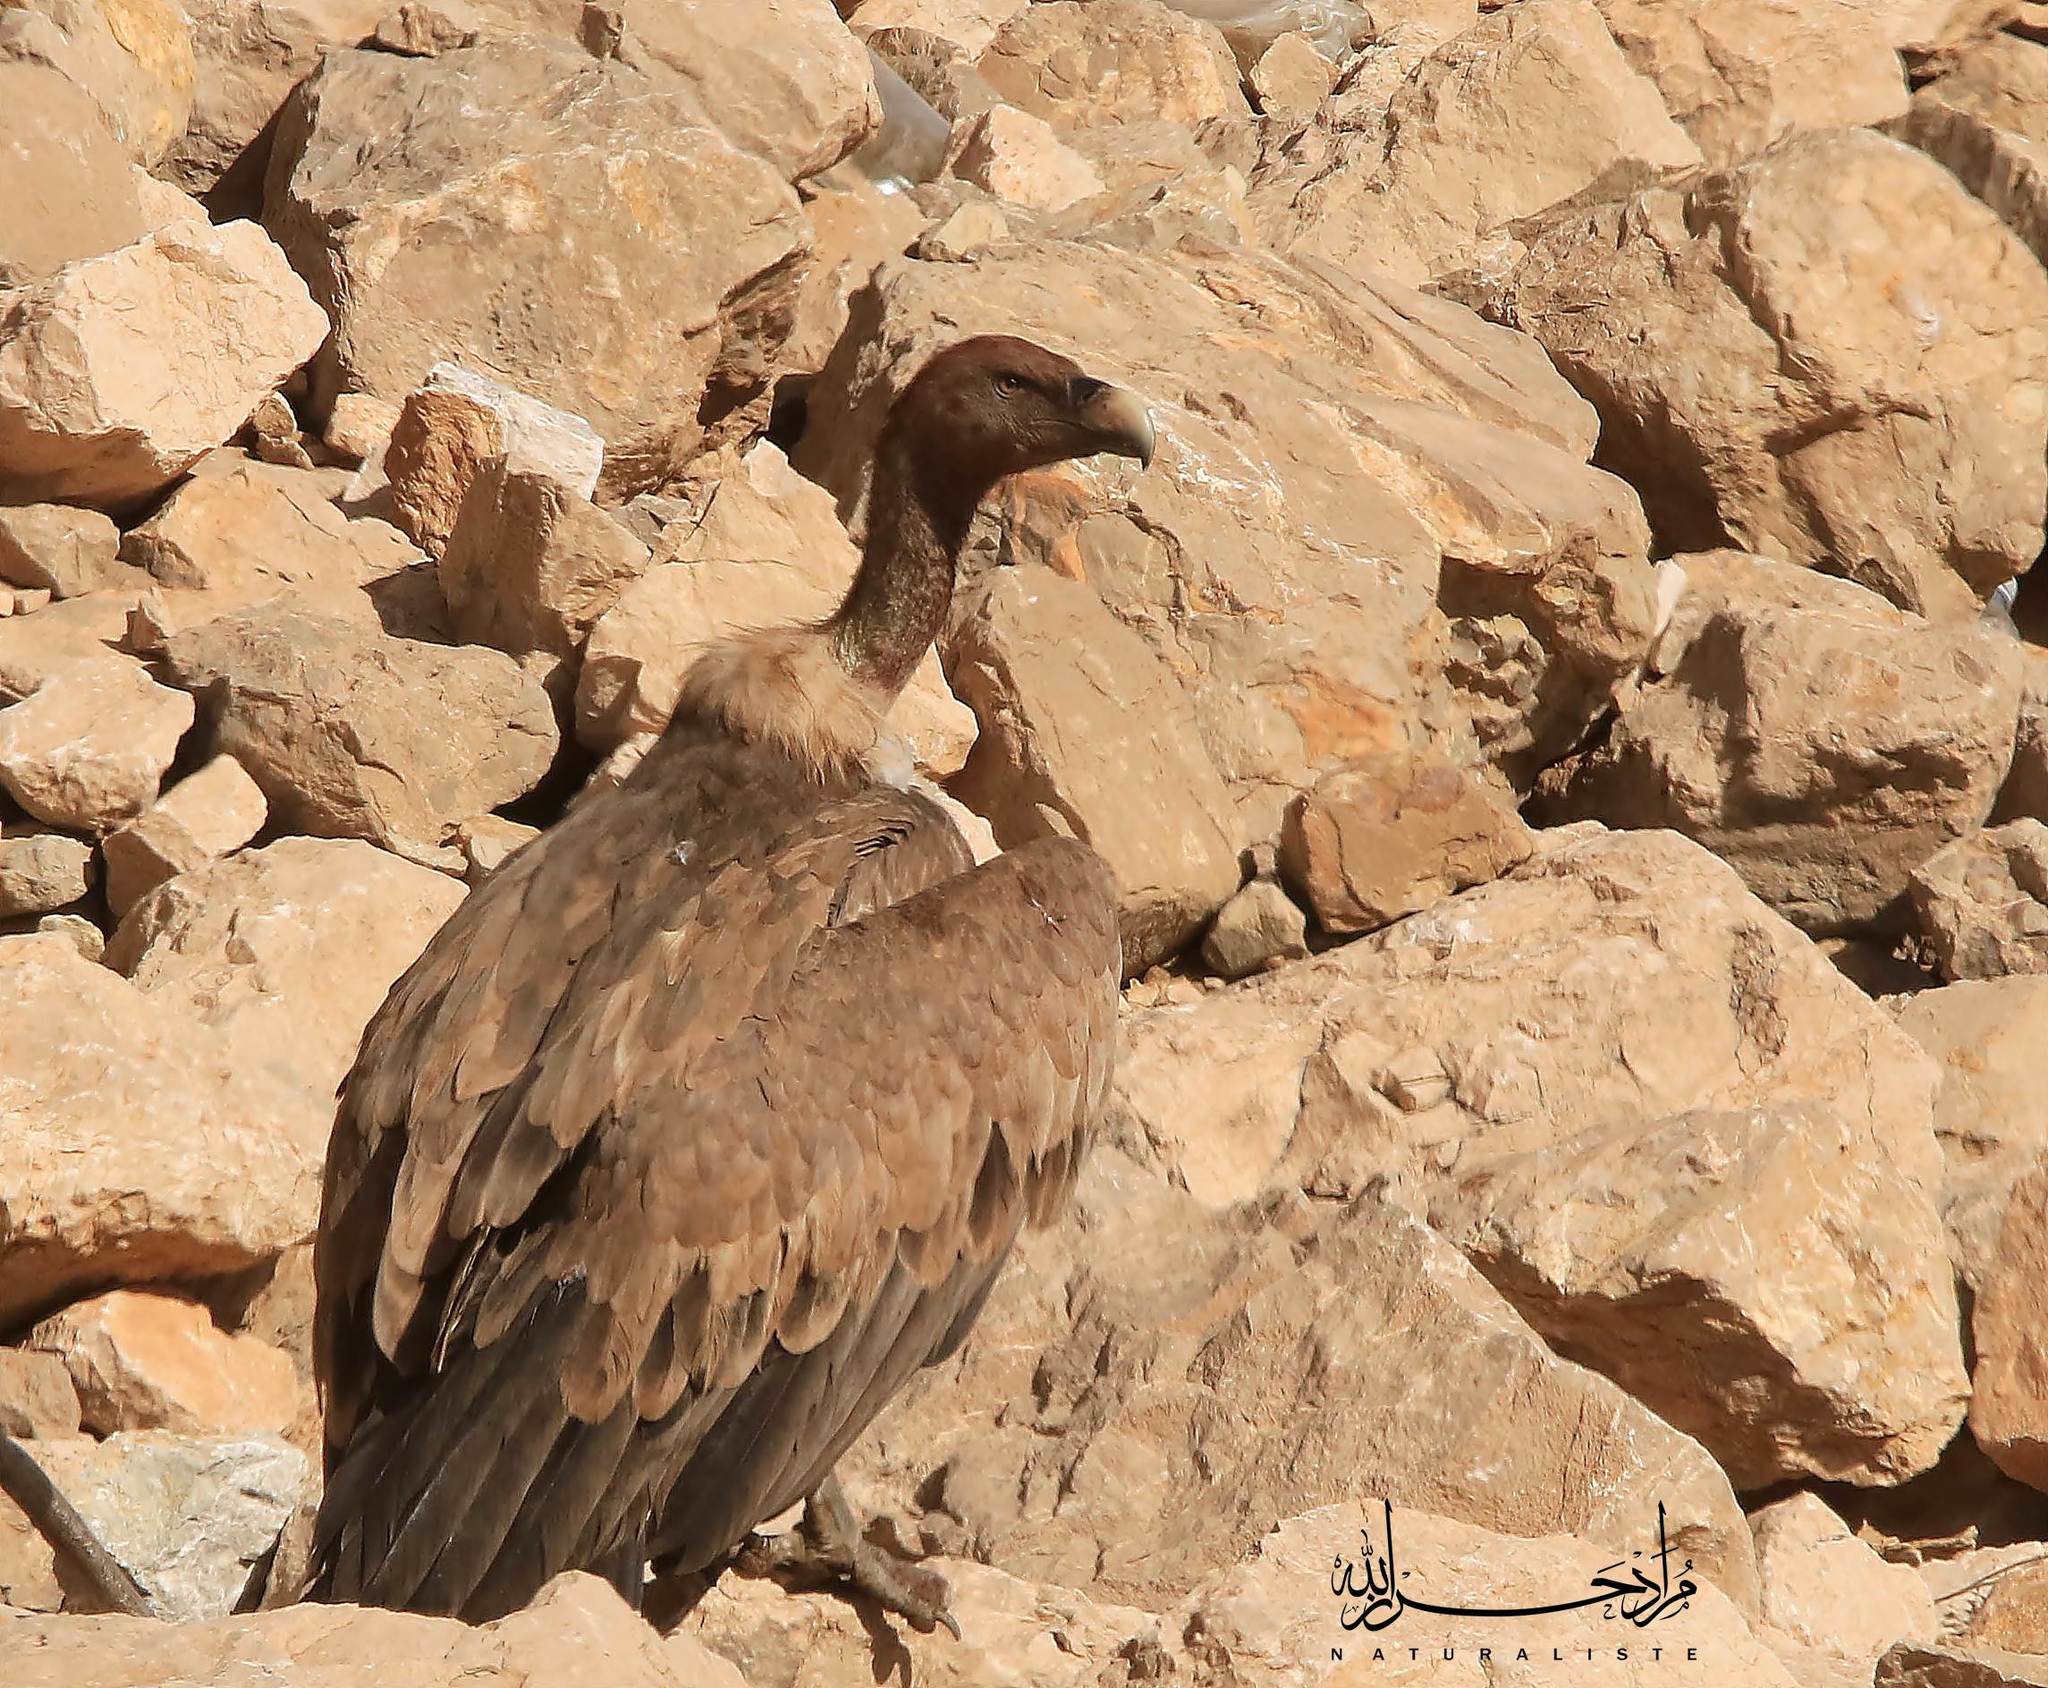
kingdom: Animalia
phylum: Chordata
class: Aves
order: Accipitriformes
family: Accipitridae
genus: Gyps
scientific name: Gyps fulvus
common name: Griffon vulture
